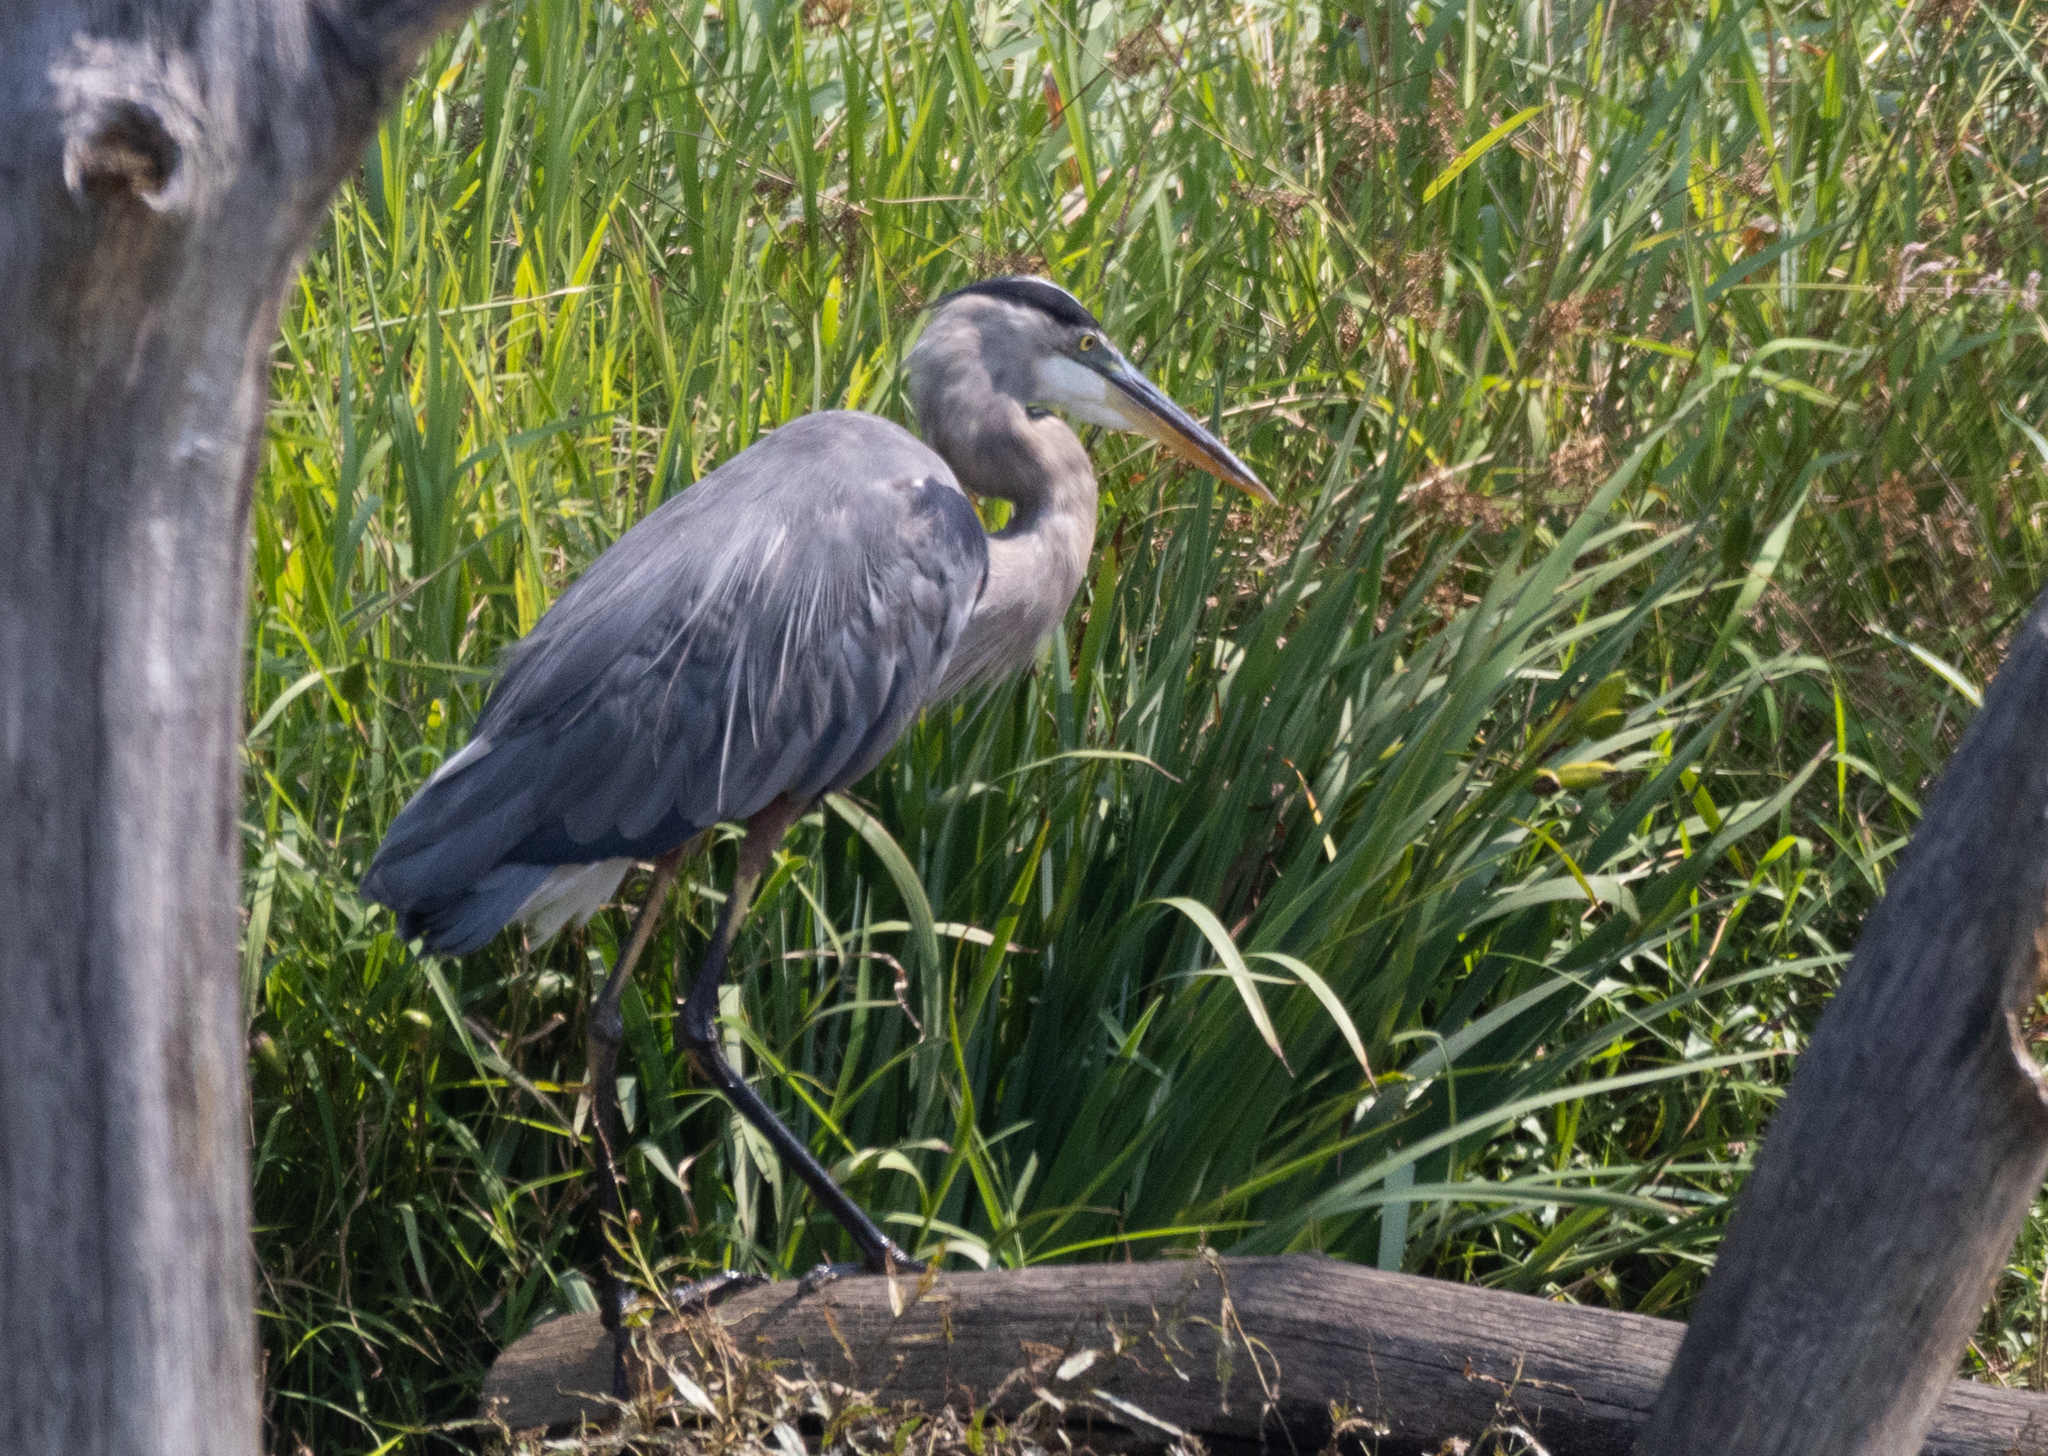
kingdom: Animalia
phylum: Chordata
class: Aves
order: Pelecaniformes
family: Ardeidae
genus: Ardea
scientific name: Ardea herodias
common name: Great blue heron
